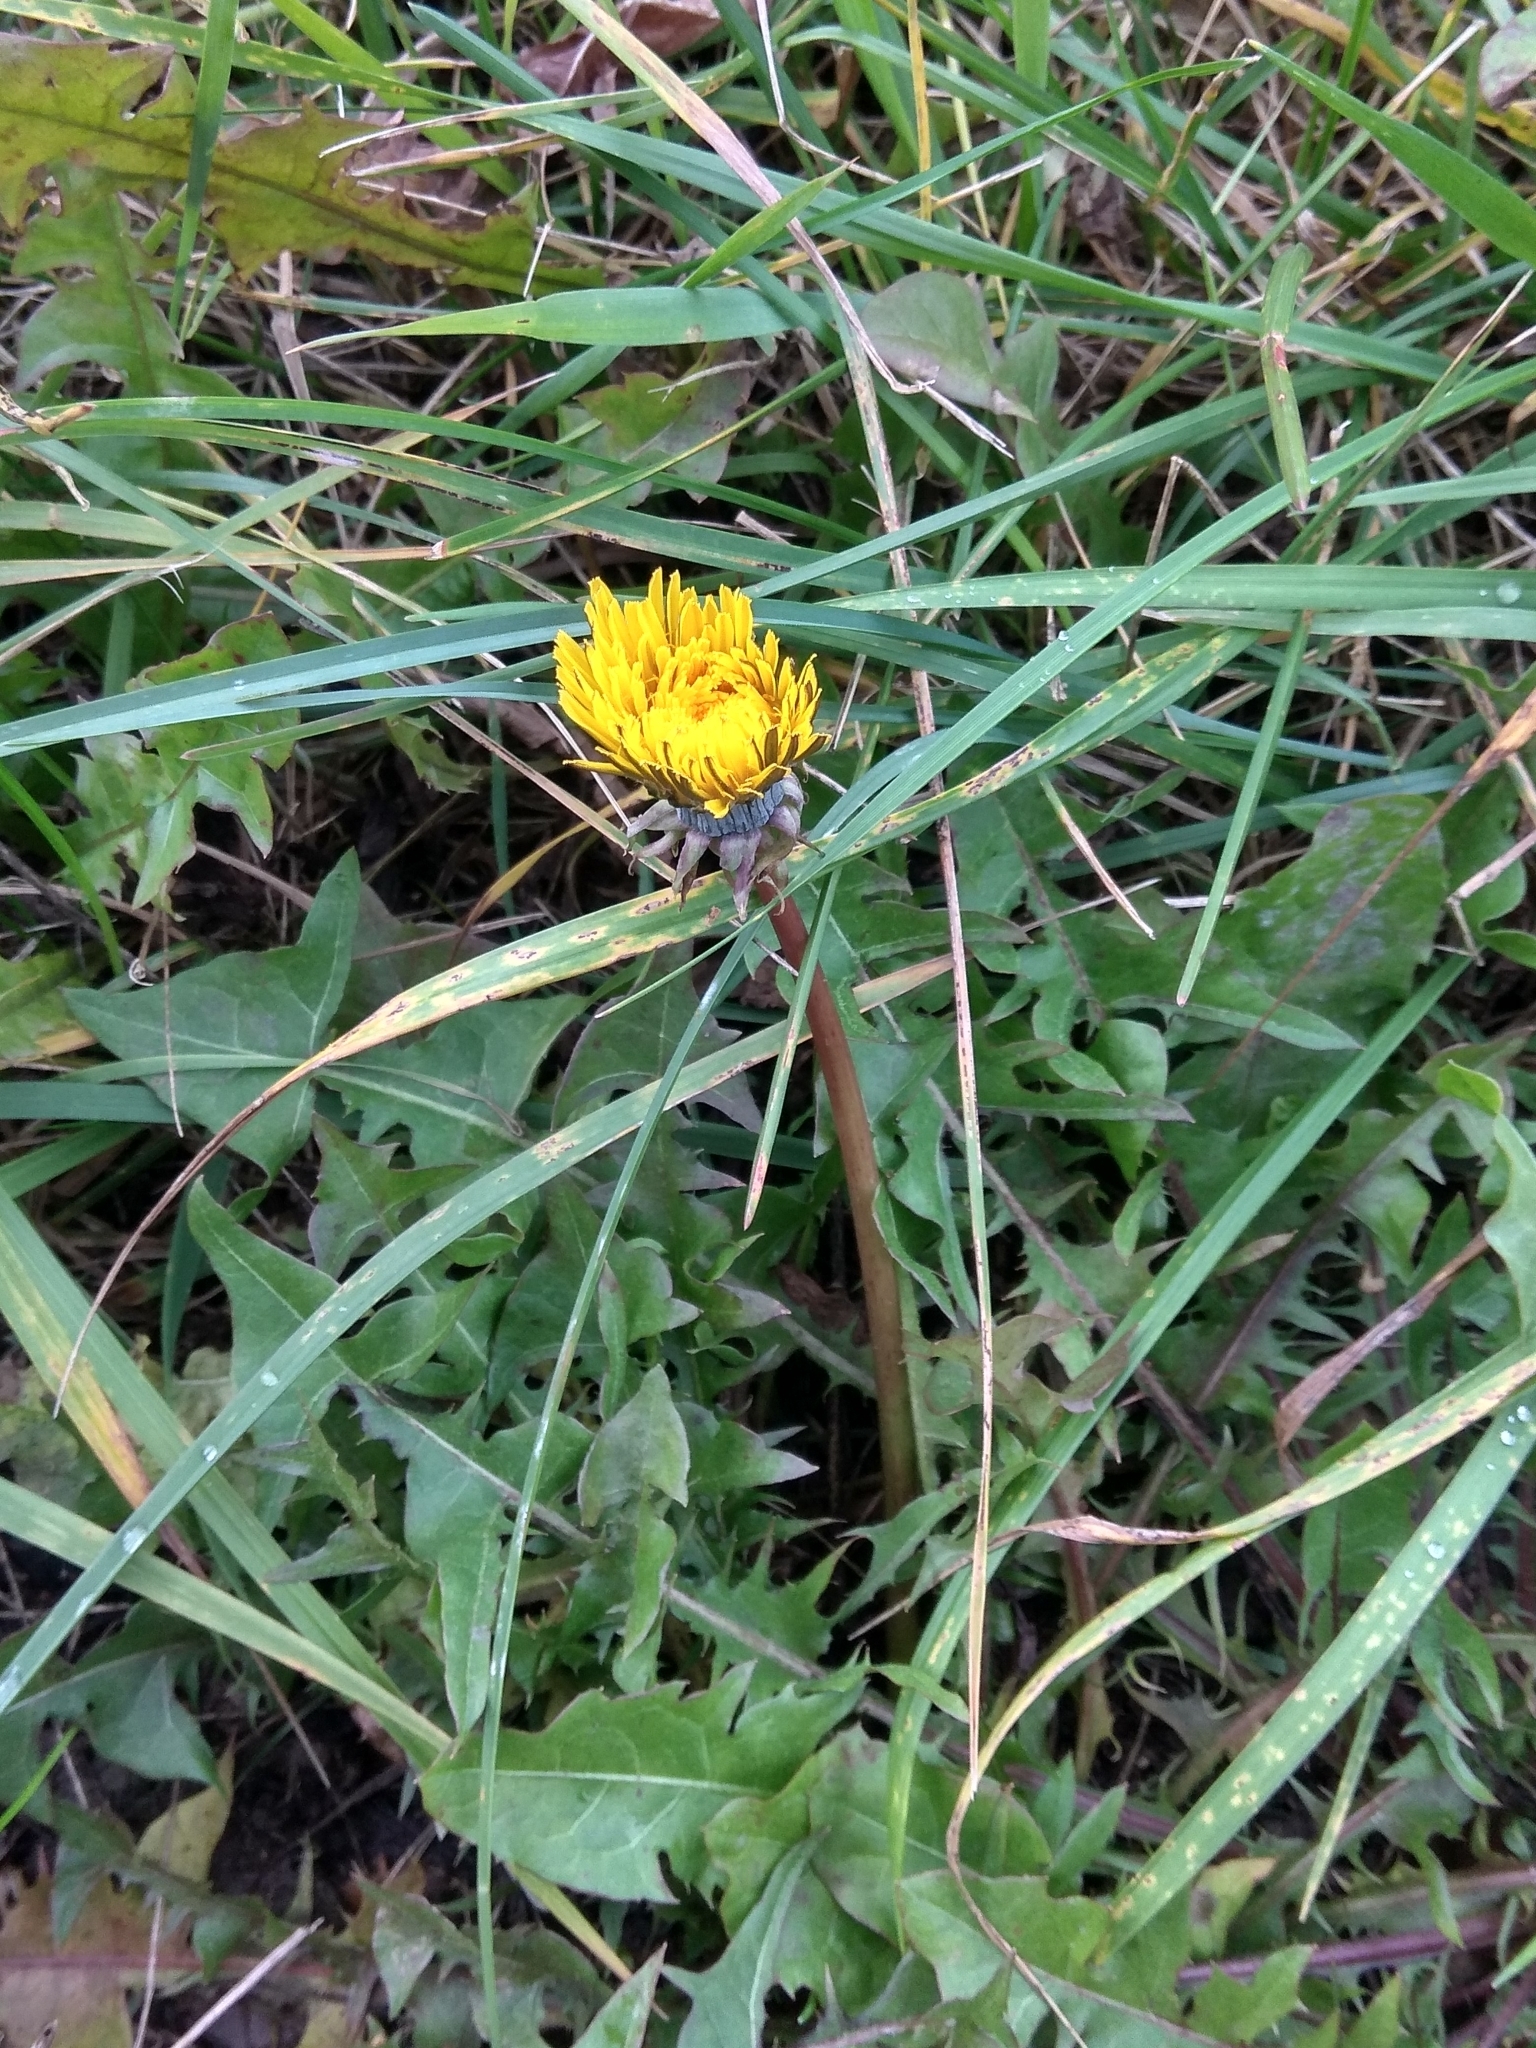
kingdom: Plantae
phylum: Tracheophyta
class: Magnoliopsida
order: Asterales
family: Asteraceae
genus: Taraxacum
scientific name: Taraxacum officinale
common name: Common dandelion
